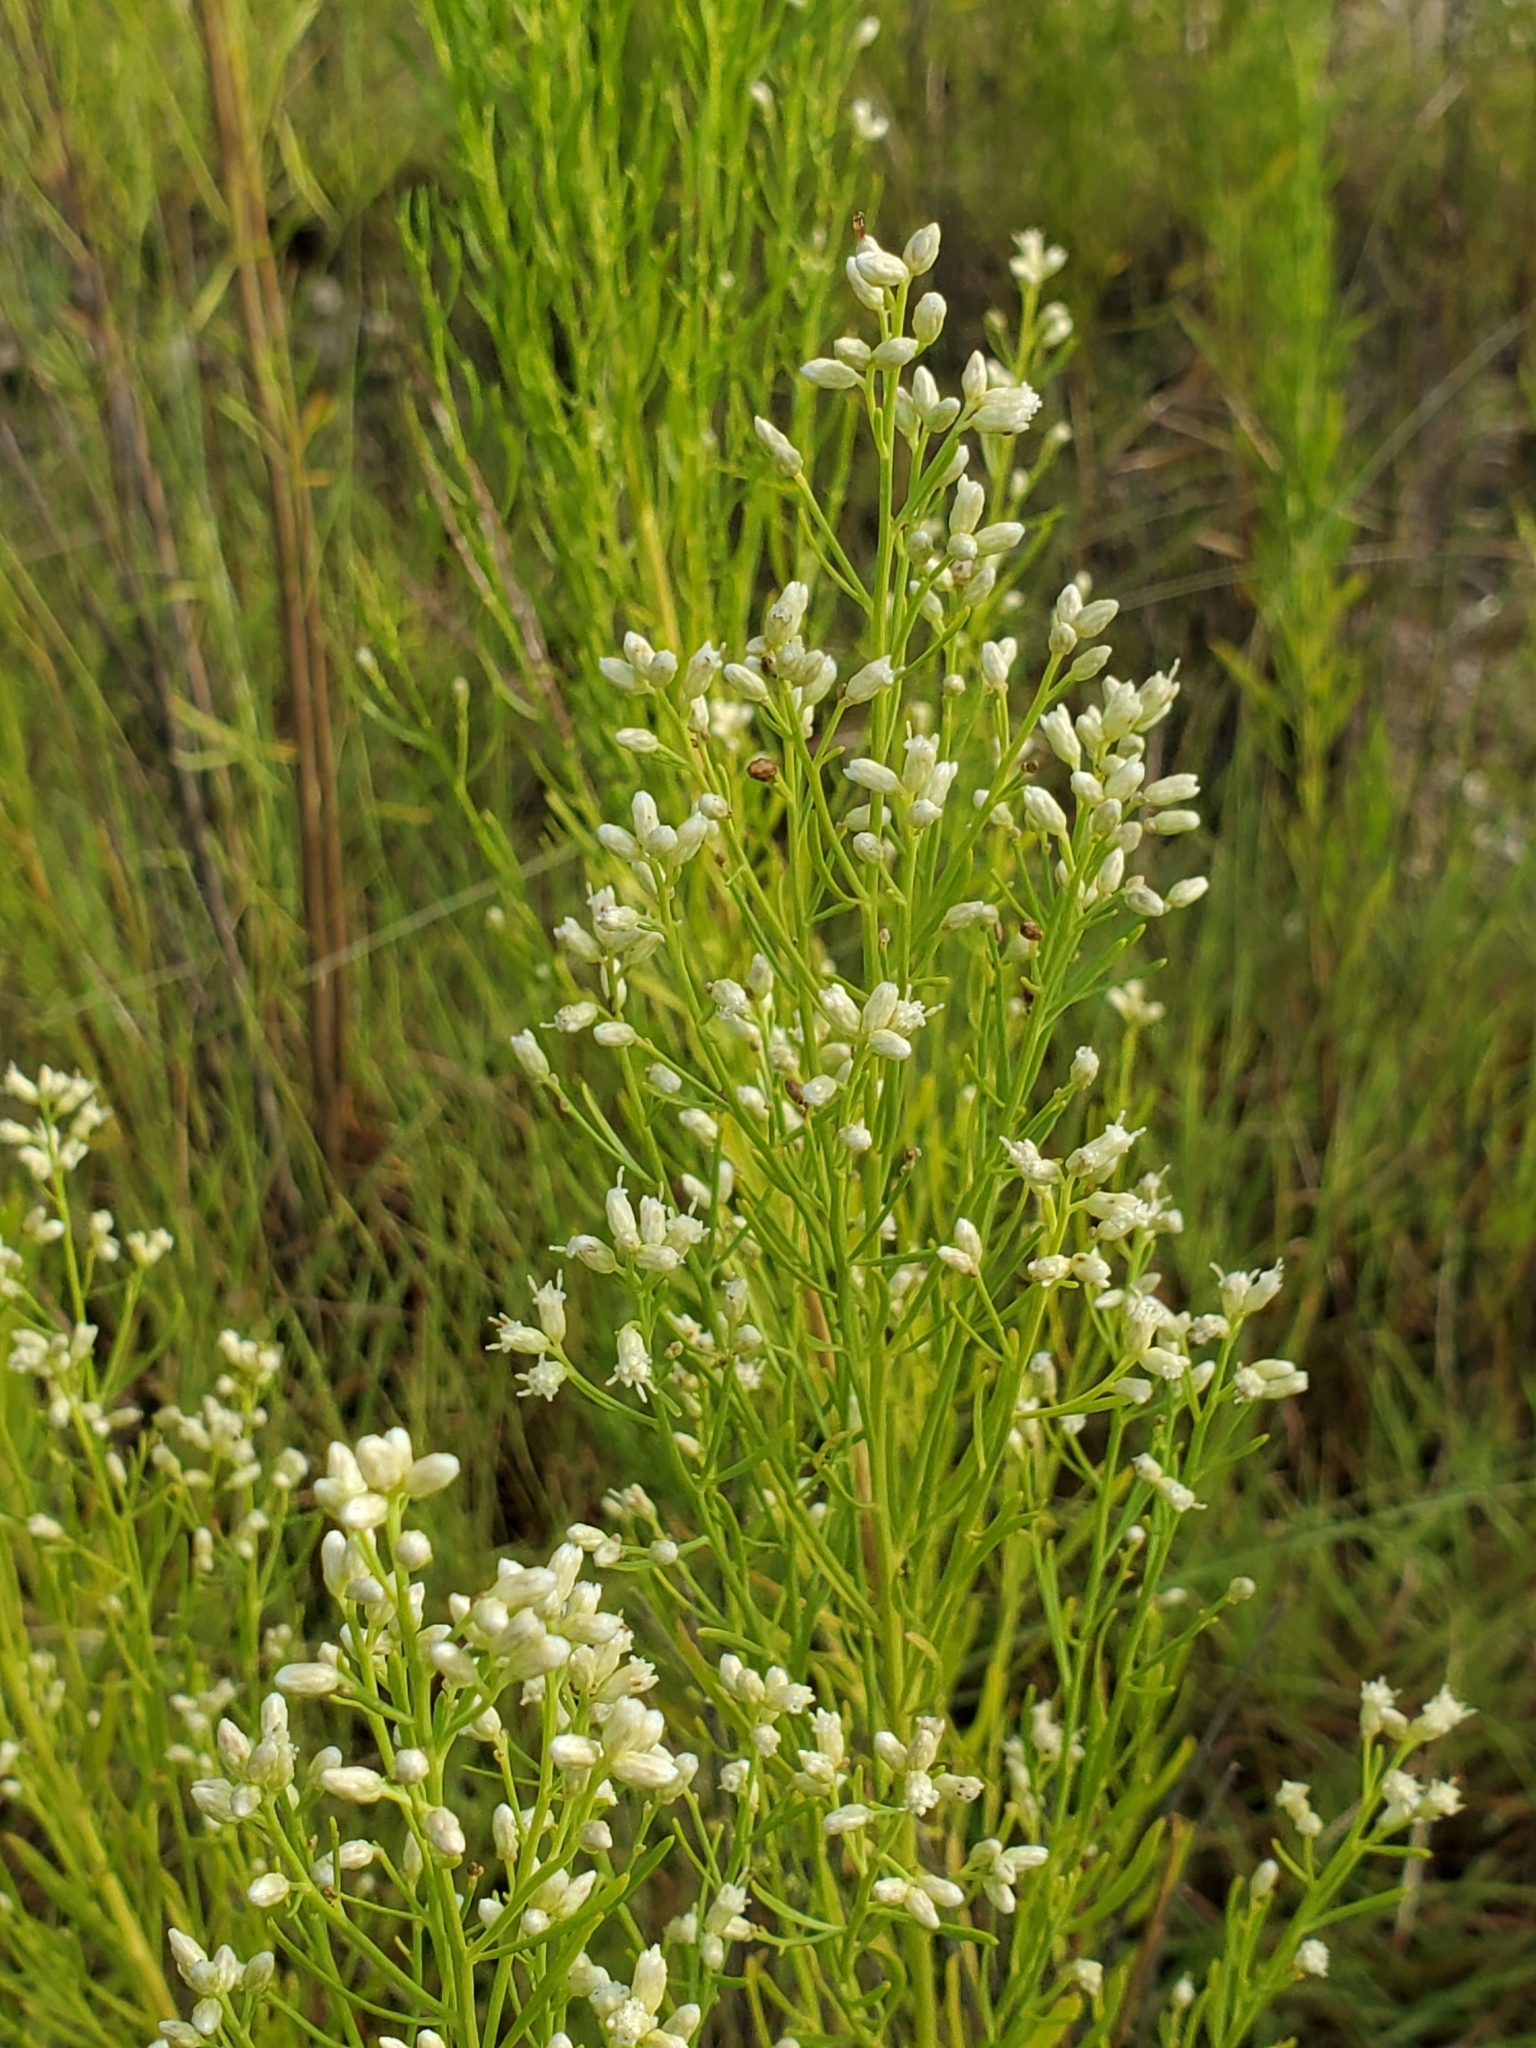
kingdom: Plantae
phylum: Tracheophyta
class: Magnoliopsida
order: Asterales
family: Asteraceae
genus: Baccharis
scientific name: Baccharis neglecta
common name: Roosevelt-weed
